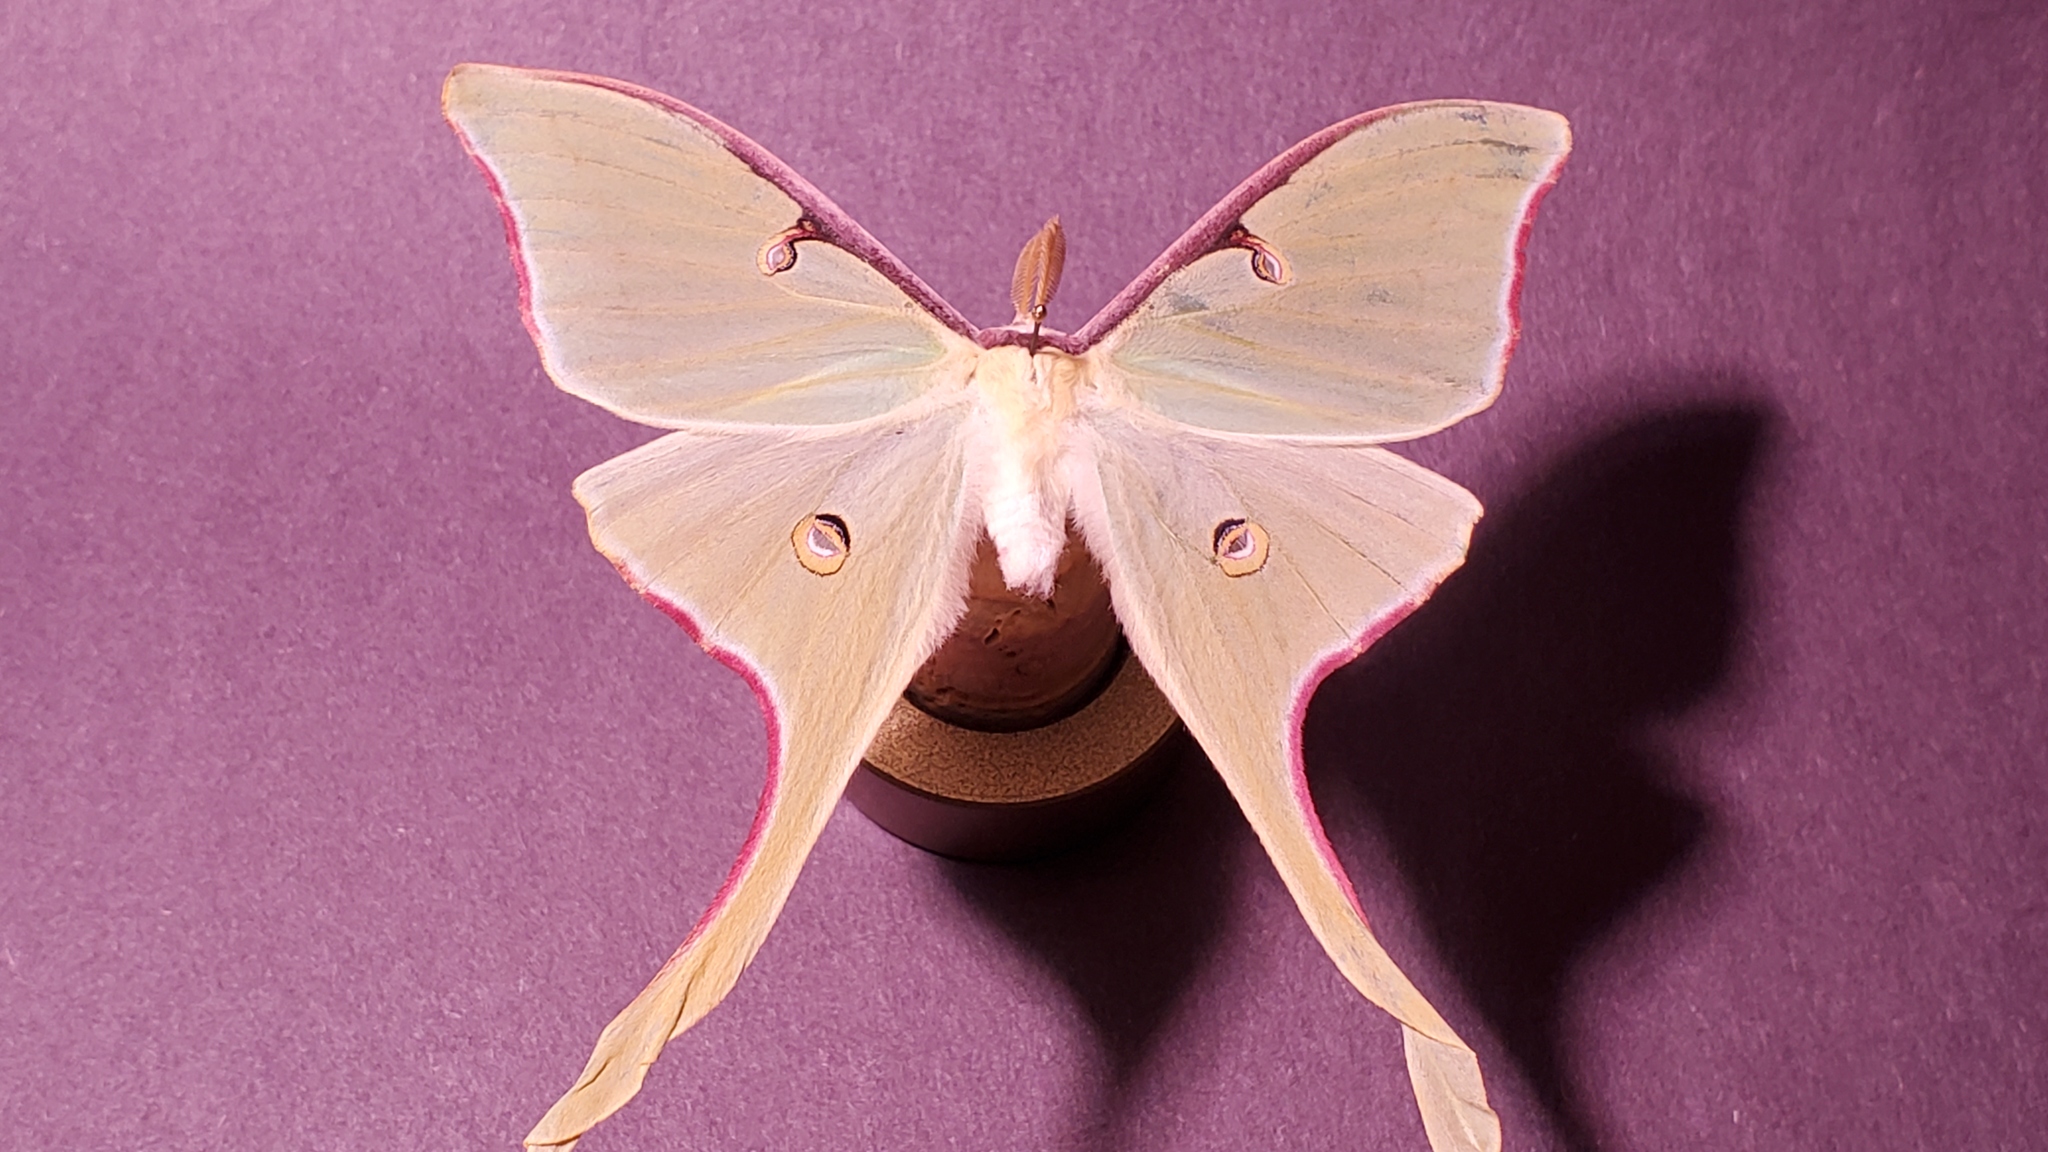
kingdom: Animalia
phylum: Arthropoda
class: Insecta
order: Lepidoptera
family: Saturniidae
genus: Actias
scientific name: Actias luna
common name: Luna moth
